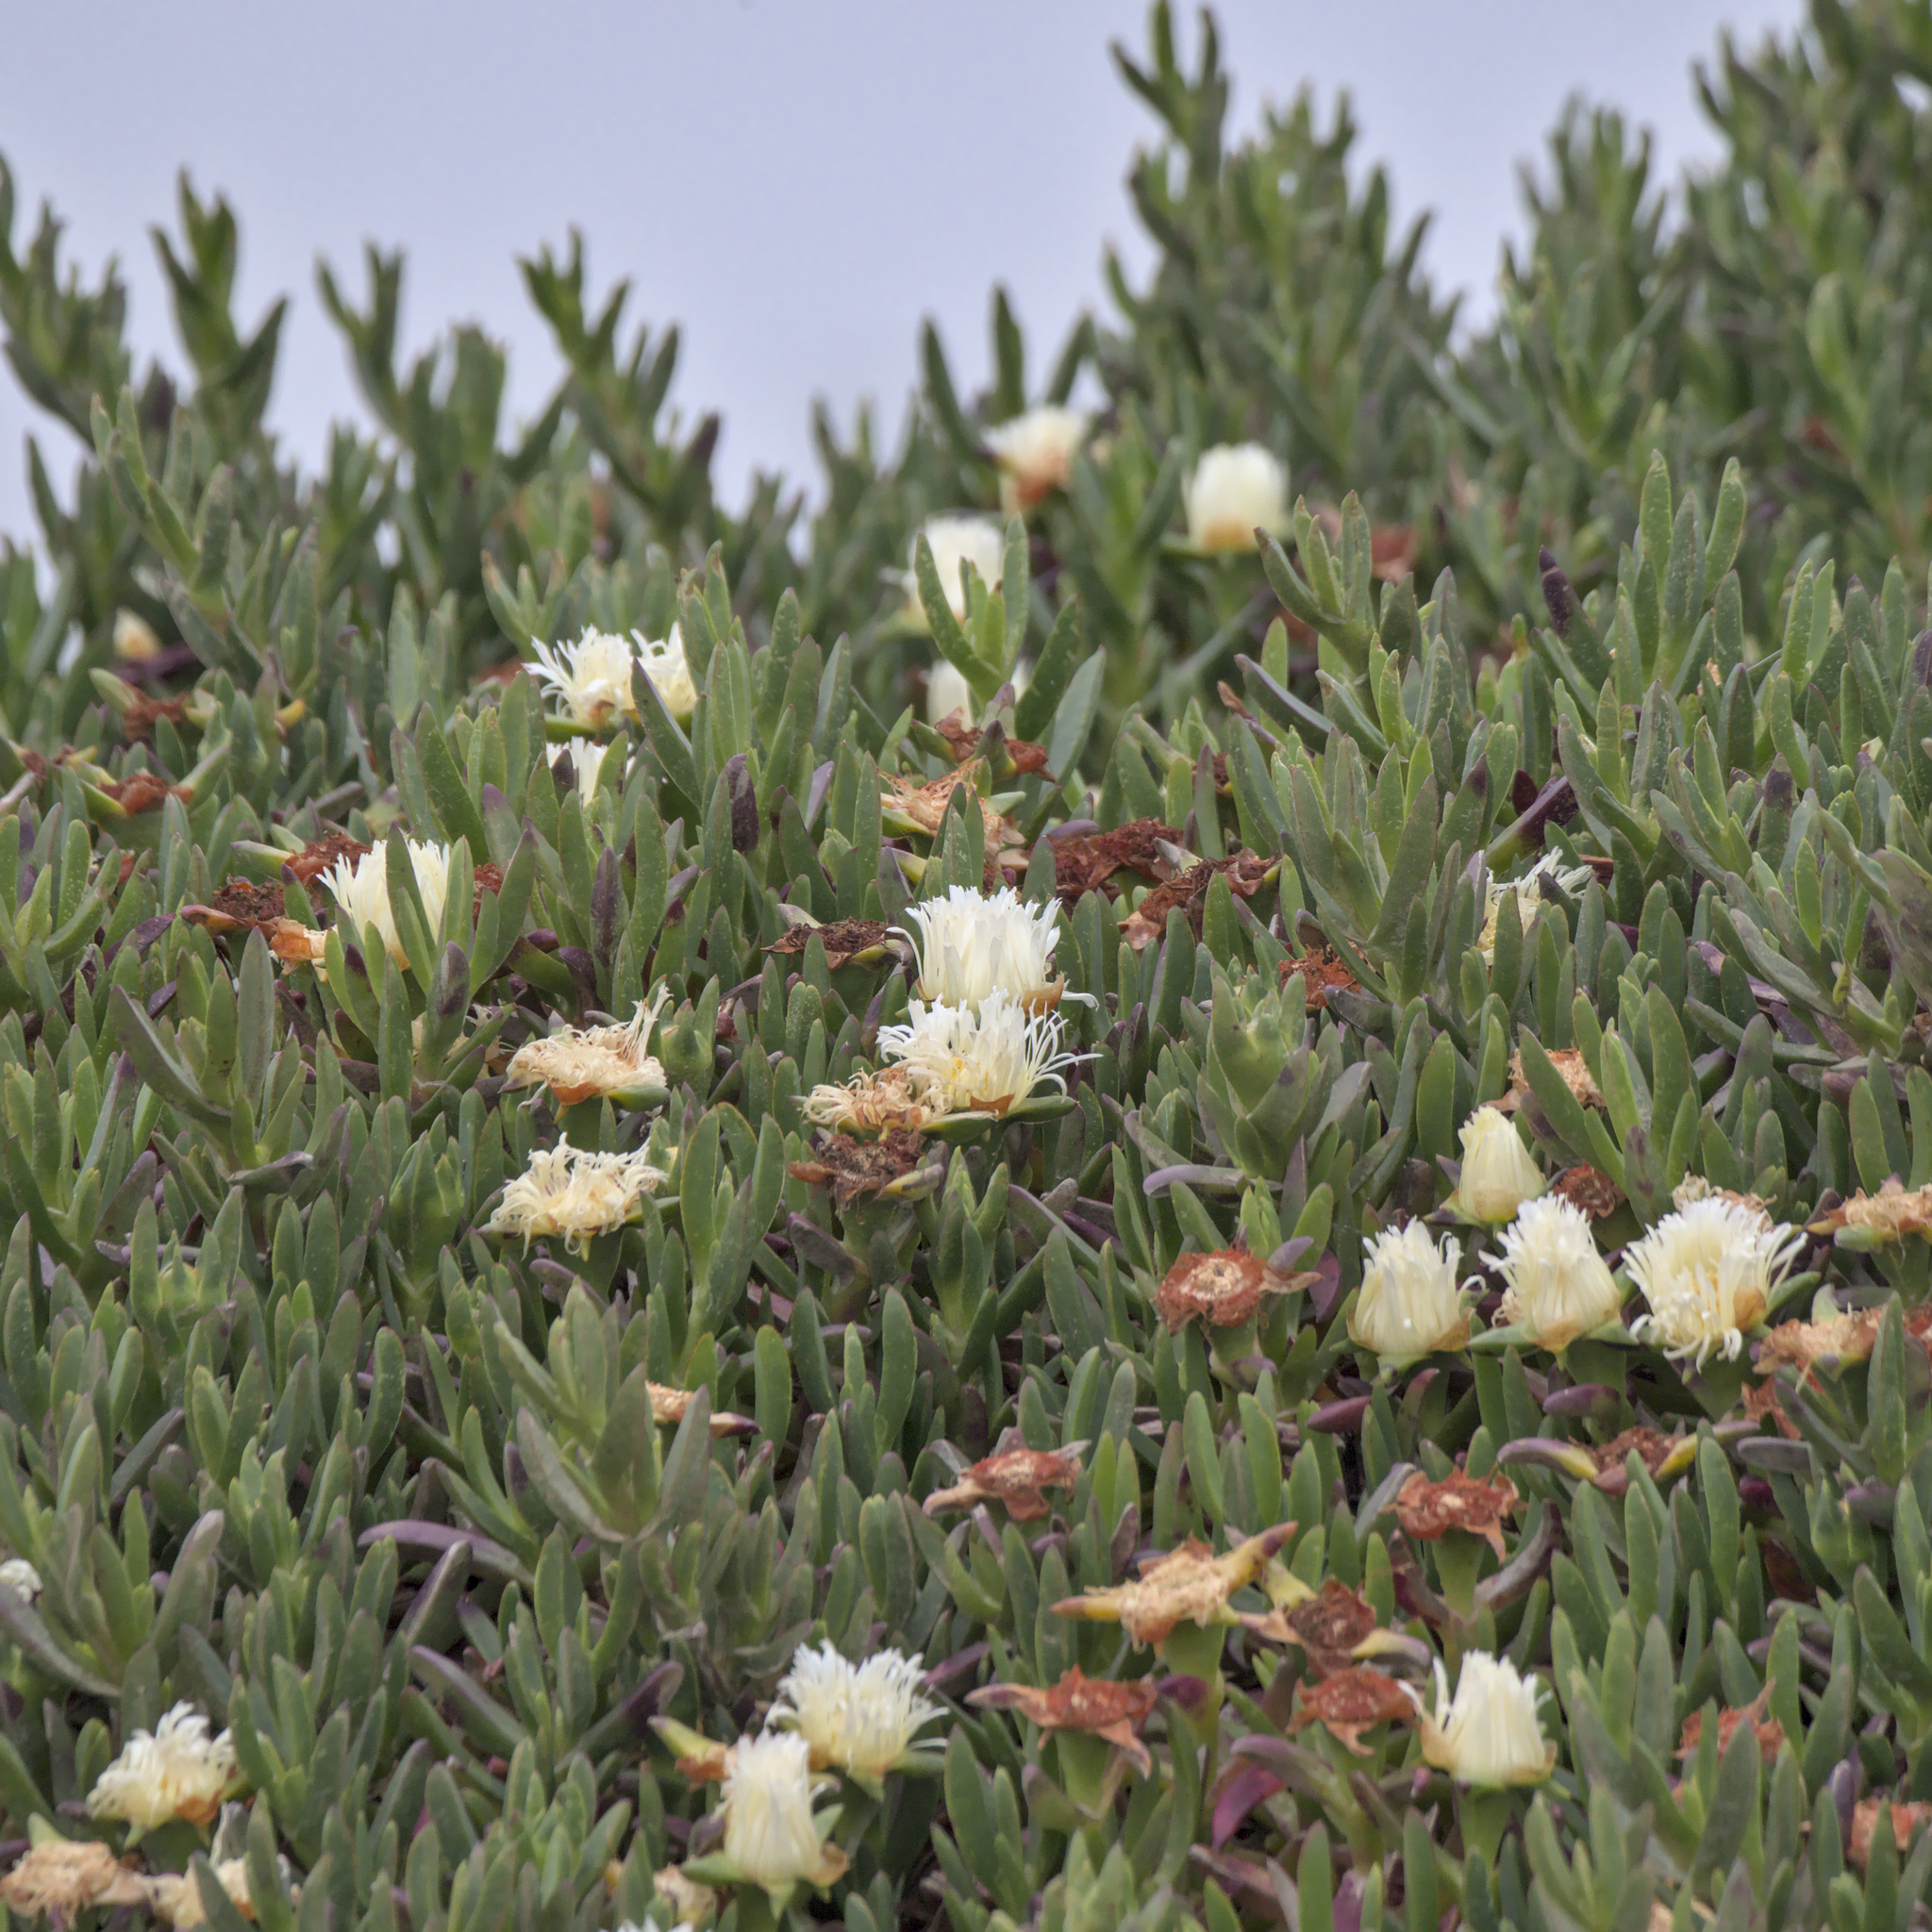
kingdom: Plantae
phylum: Tracheophyta
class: Magnoliopsida
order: Caryophyllales
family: Aizoaceae
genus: Carpobrotus
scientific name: Carpobrotus edulis
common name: Hottentot-fig
